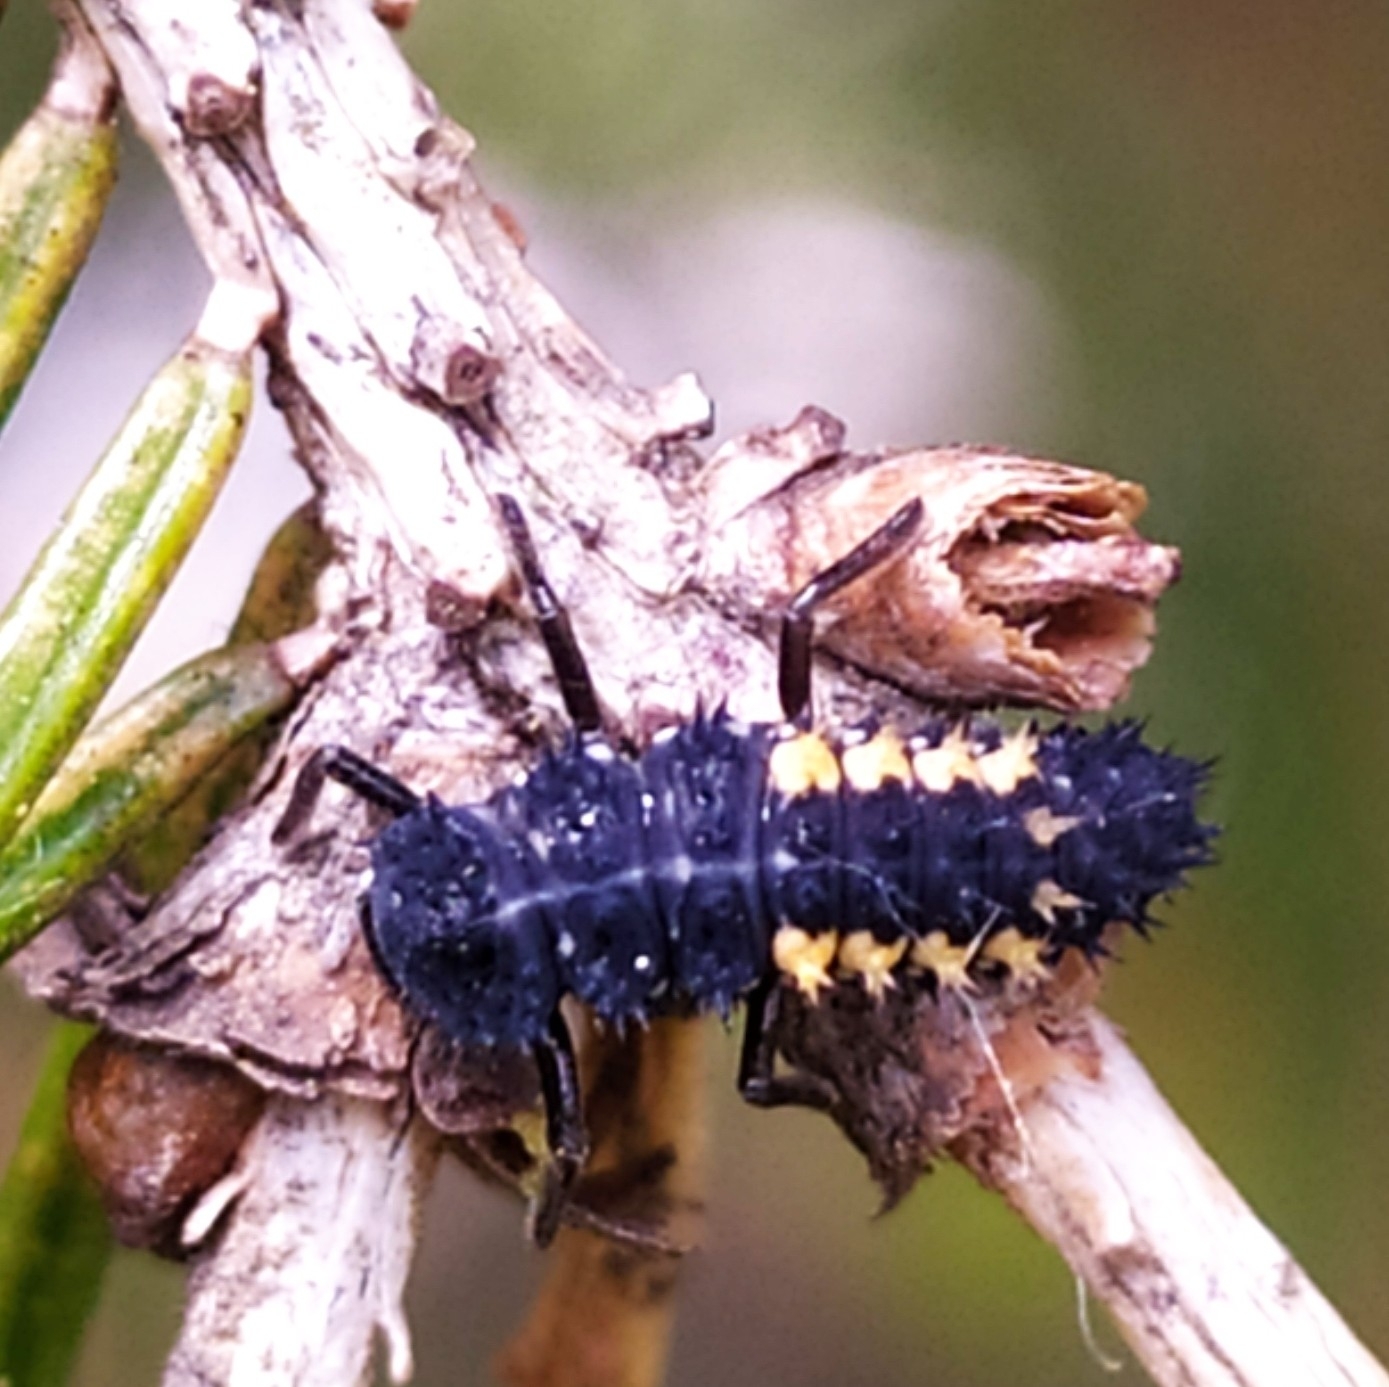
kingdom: Animalia
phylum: Arthropoda
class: Insecta
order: Coleoptera
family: Coccinellidae
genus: Harmonia
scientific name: Harmonia axyridis
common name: Harlequin ladybird
